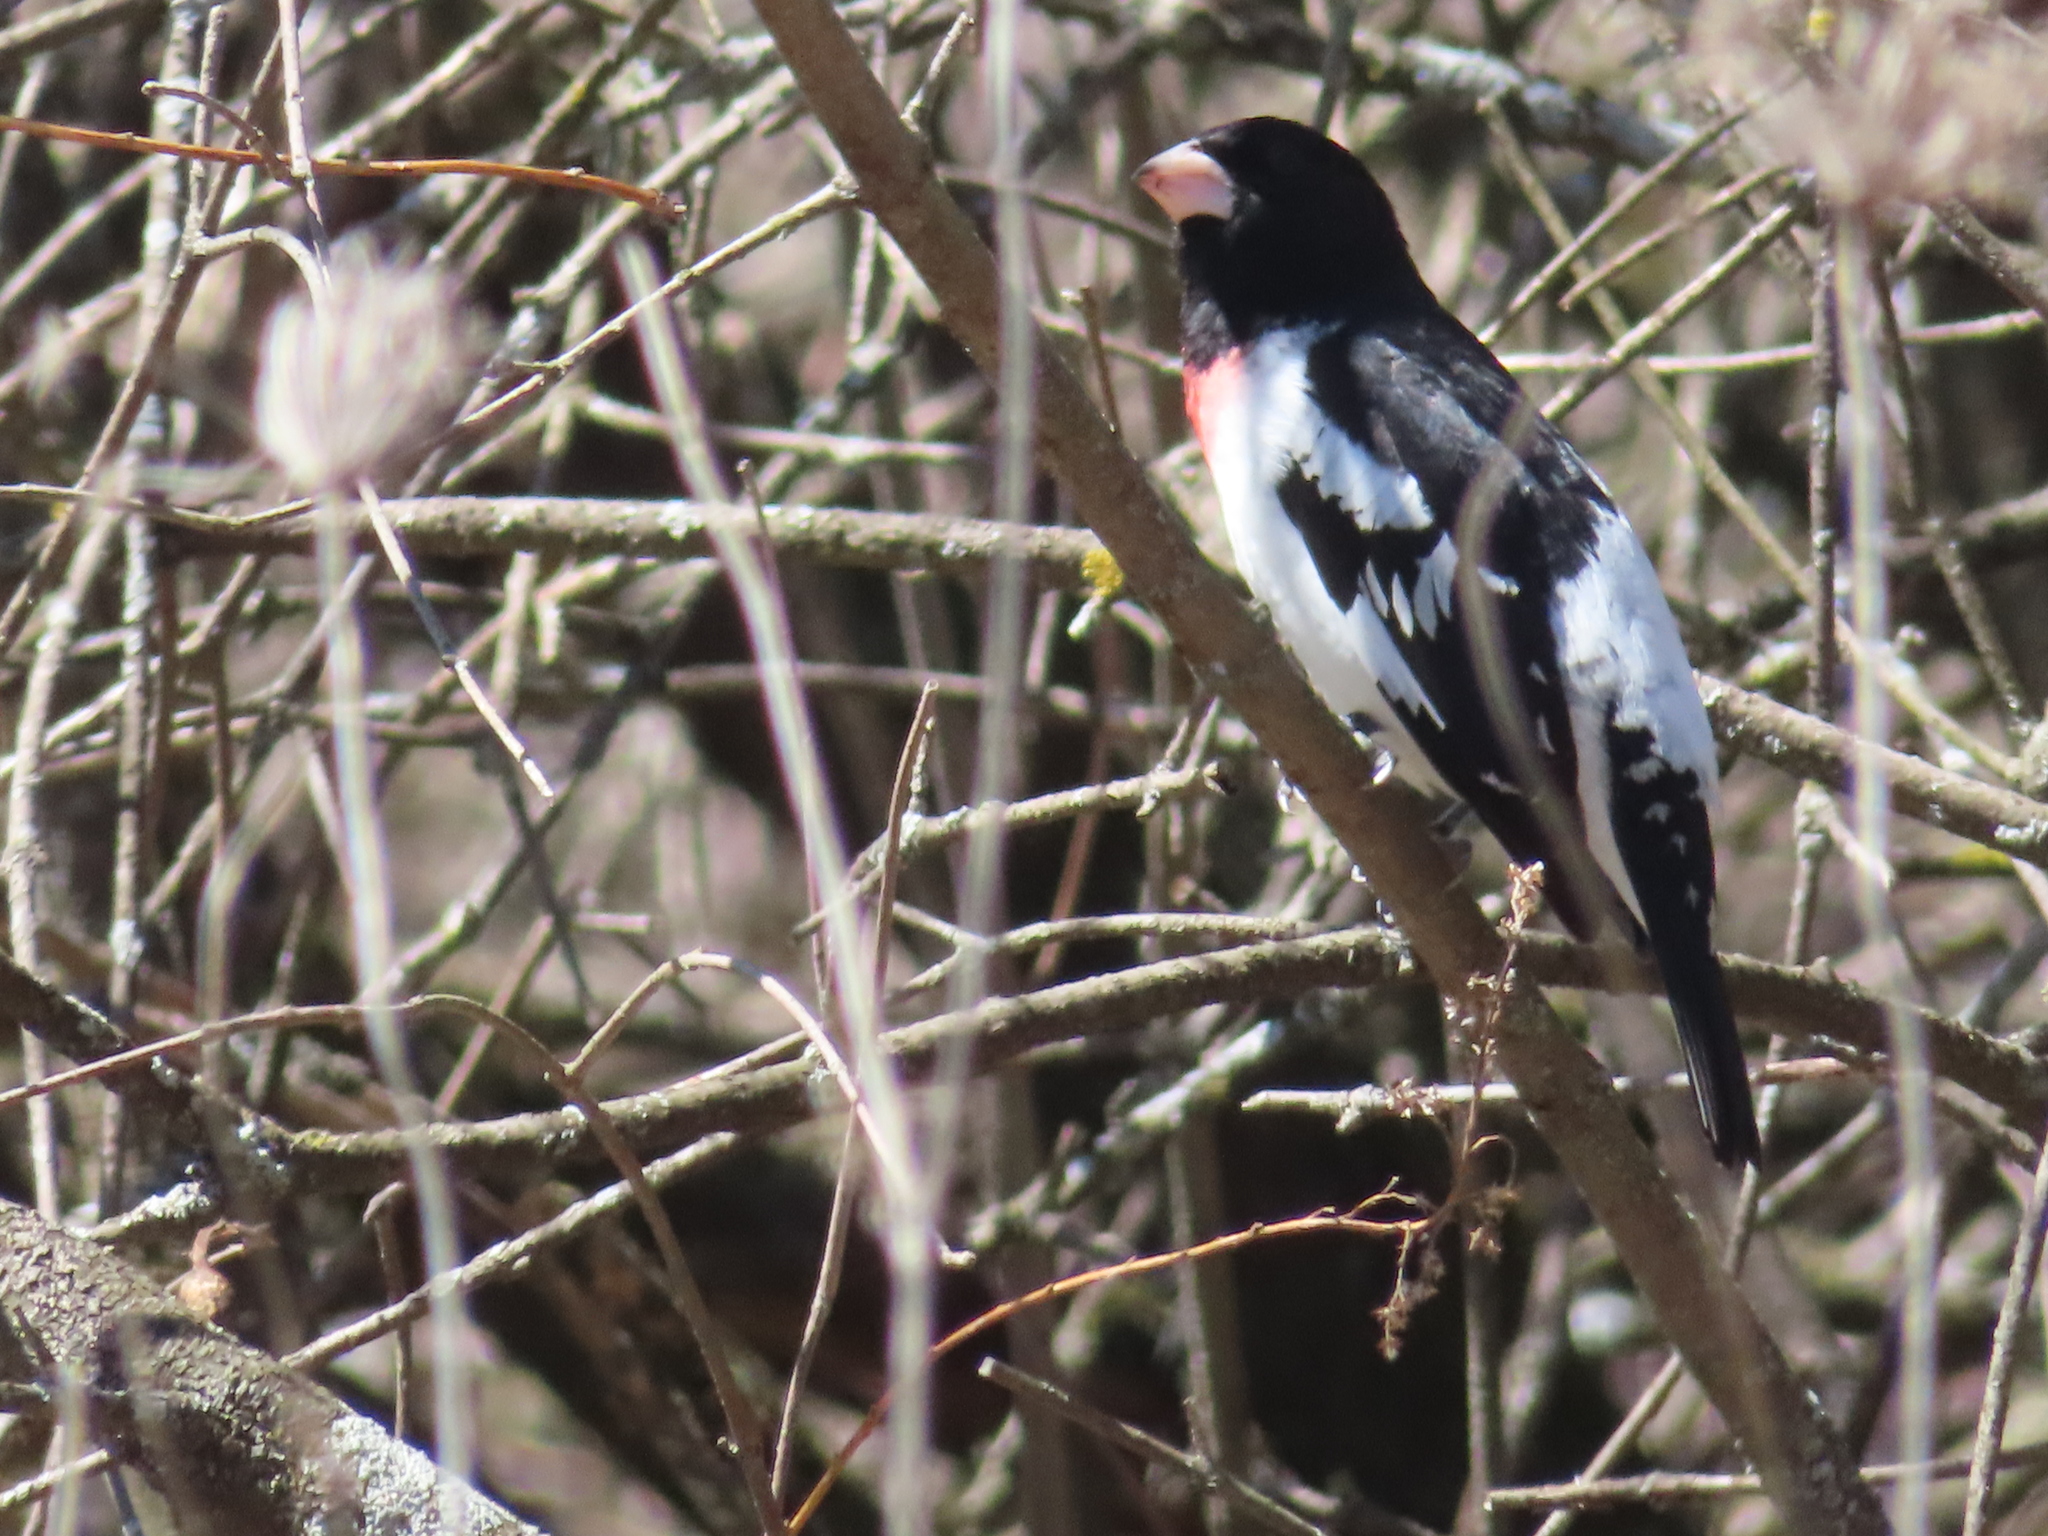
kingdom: Animalia
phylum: Chordata
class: Aves
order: Passeriformes
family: Cardinalidae
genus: Pheucticus
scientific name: Pheucticus ludovicianus
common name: Rose-breasted grosbeak
